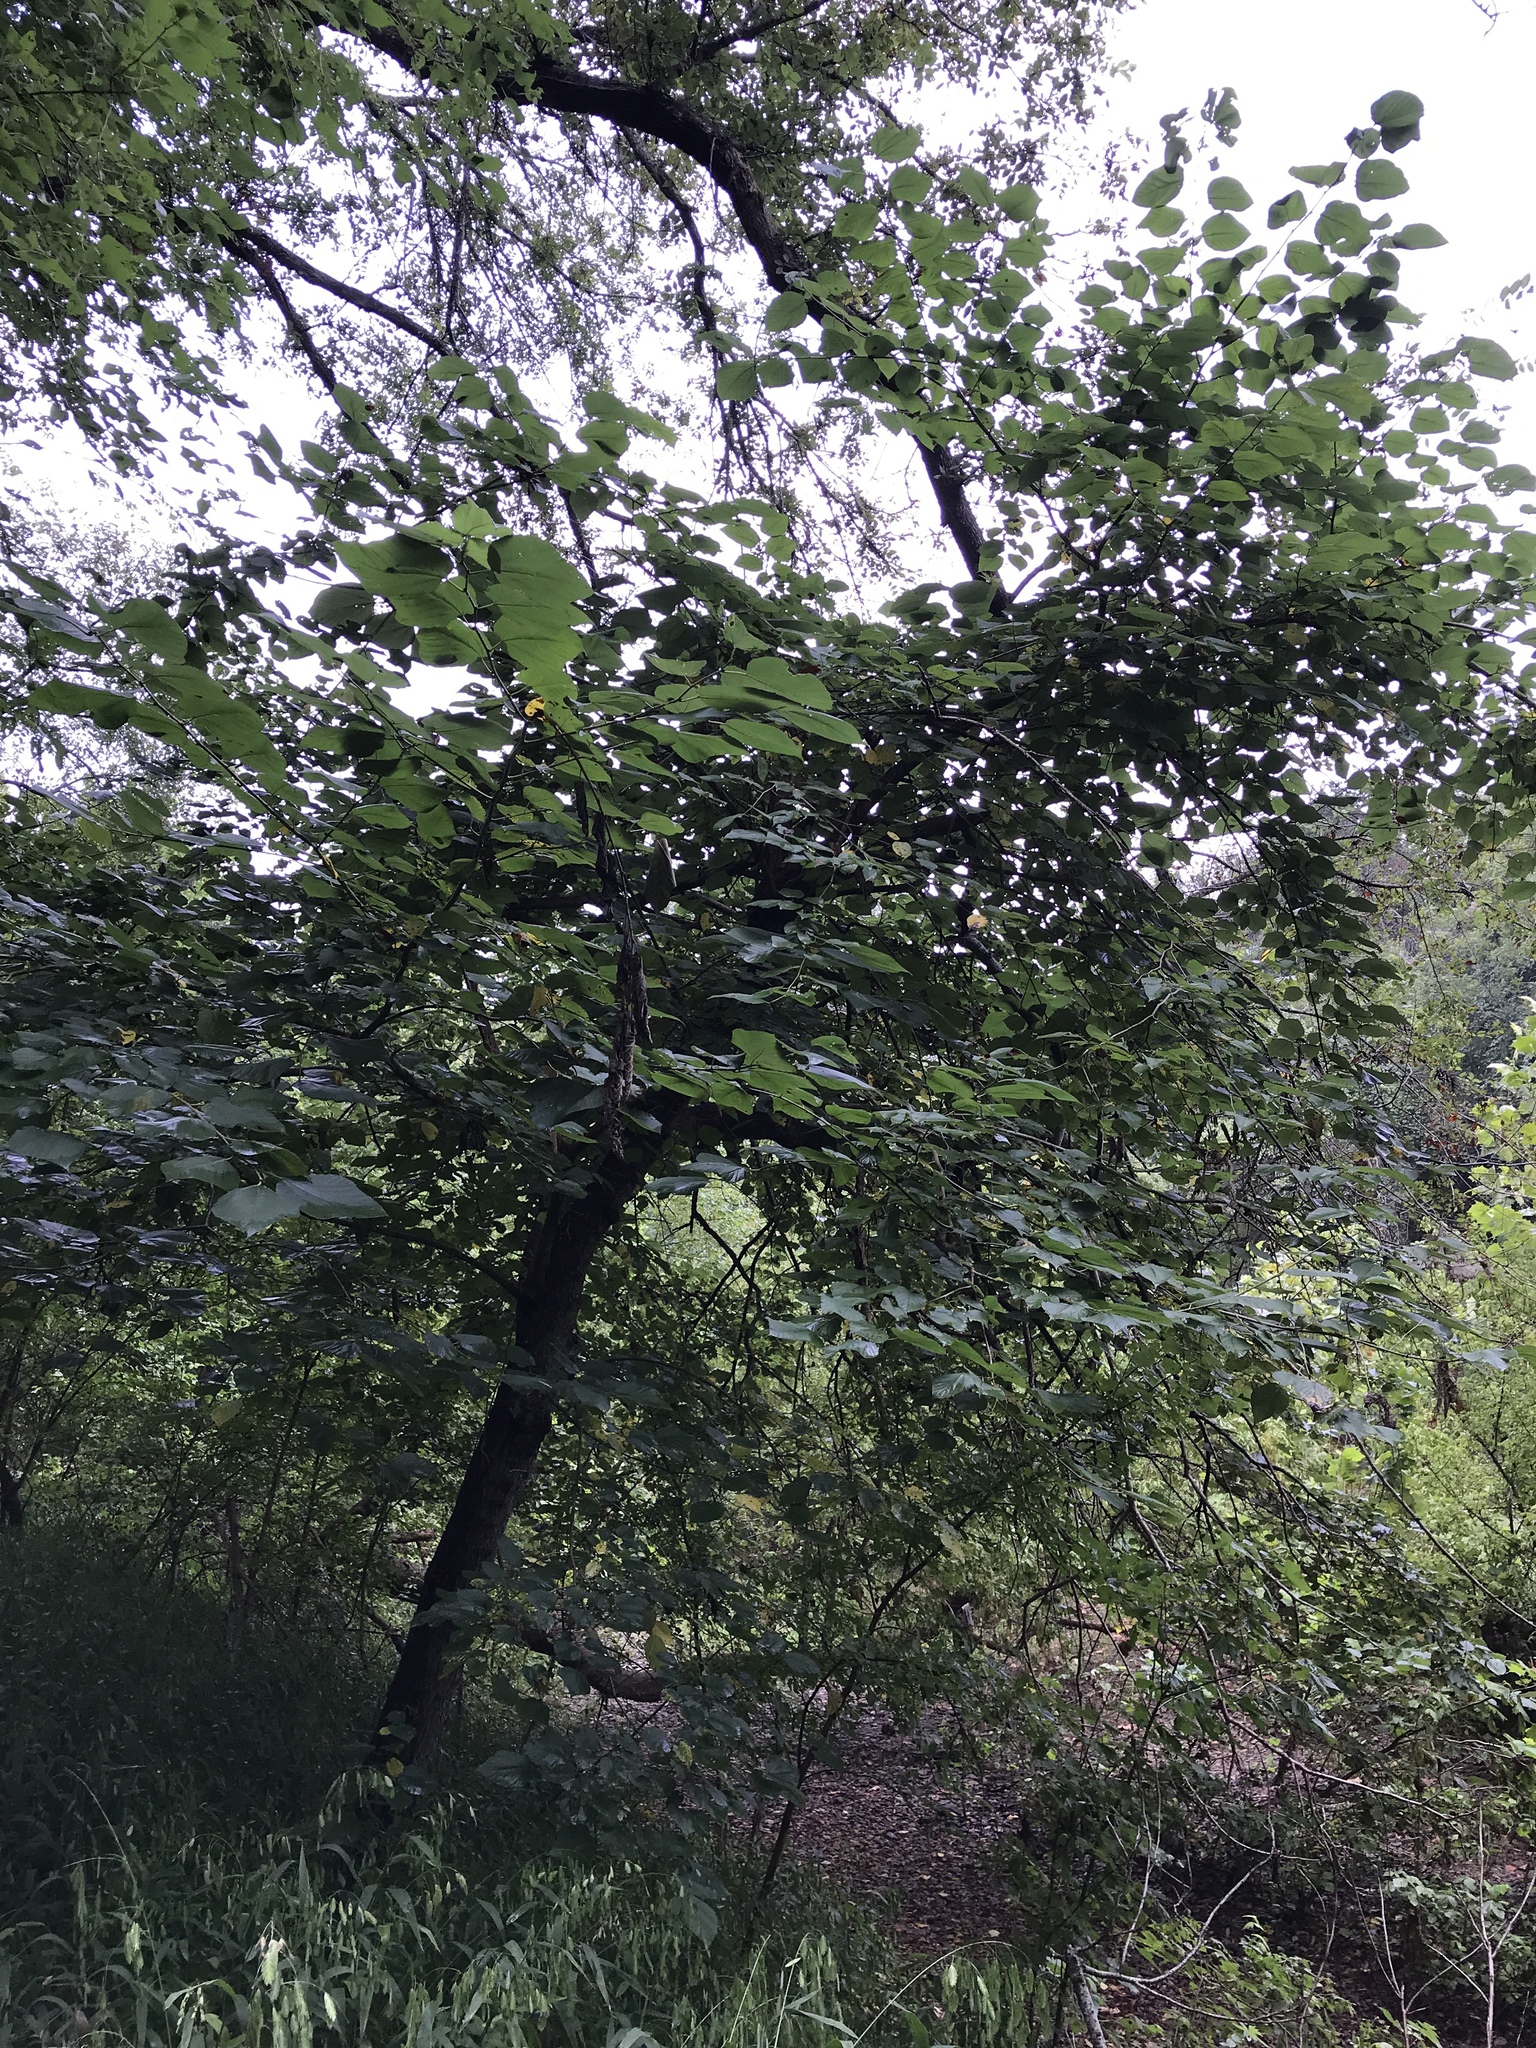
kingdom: Plantae
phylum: Tracheophyta
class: Magnoliopsida
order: Rosales
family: Moraceae
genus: Morus
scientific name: Morus rubra
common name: Red mulberry
